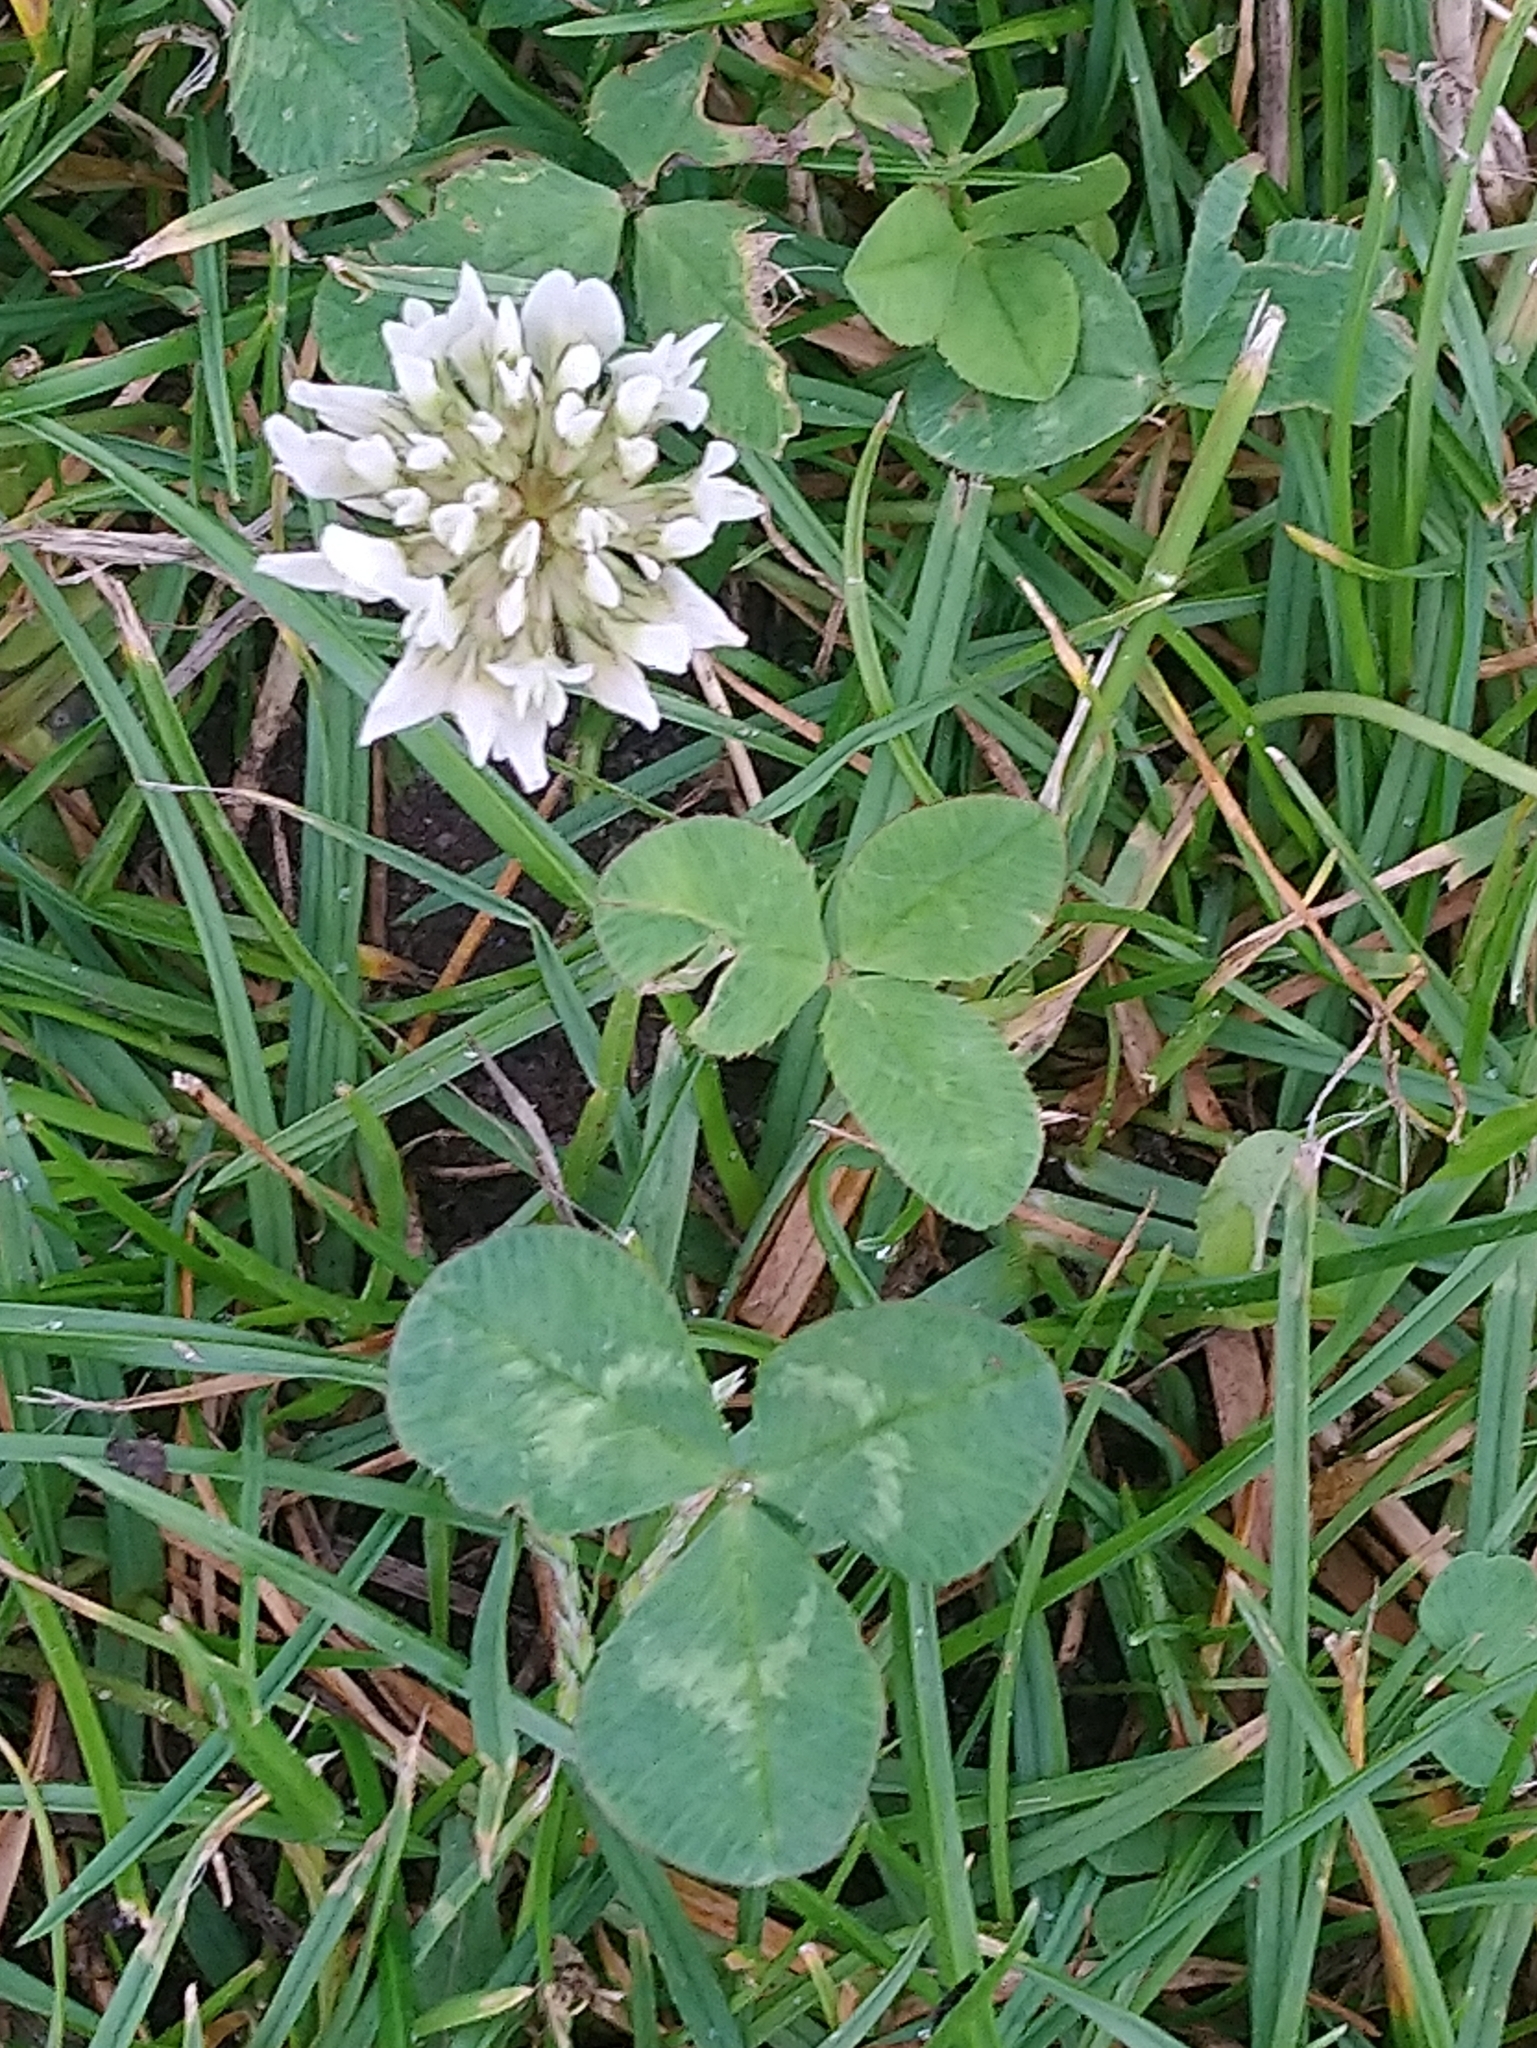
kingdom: Plantae
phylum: Tracheophyta
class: Magnoliopsida
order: Fabales
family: Fabaceae
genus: Trifolium
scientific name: Trifolium repens
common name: White clover
